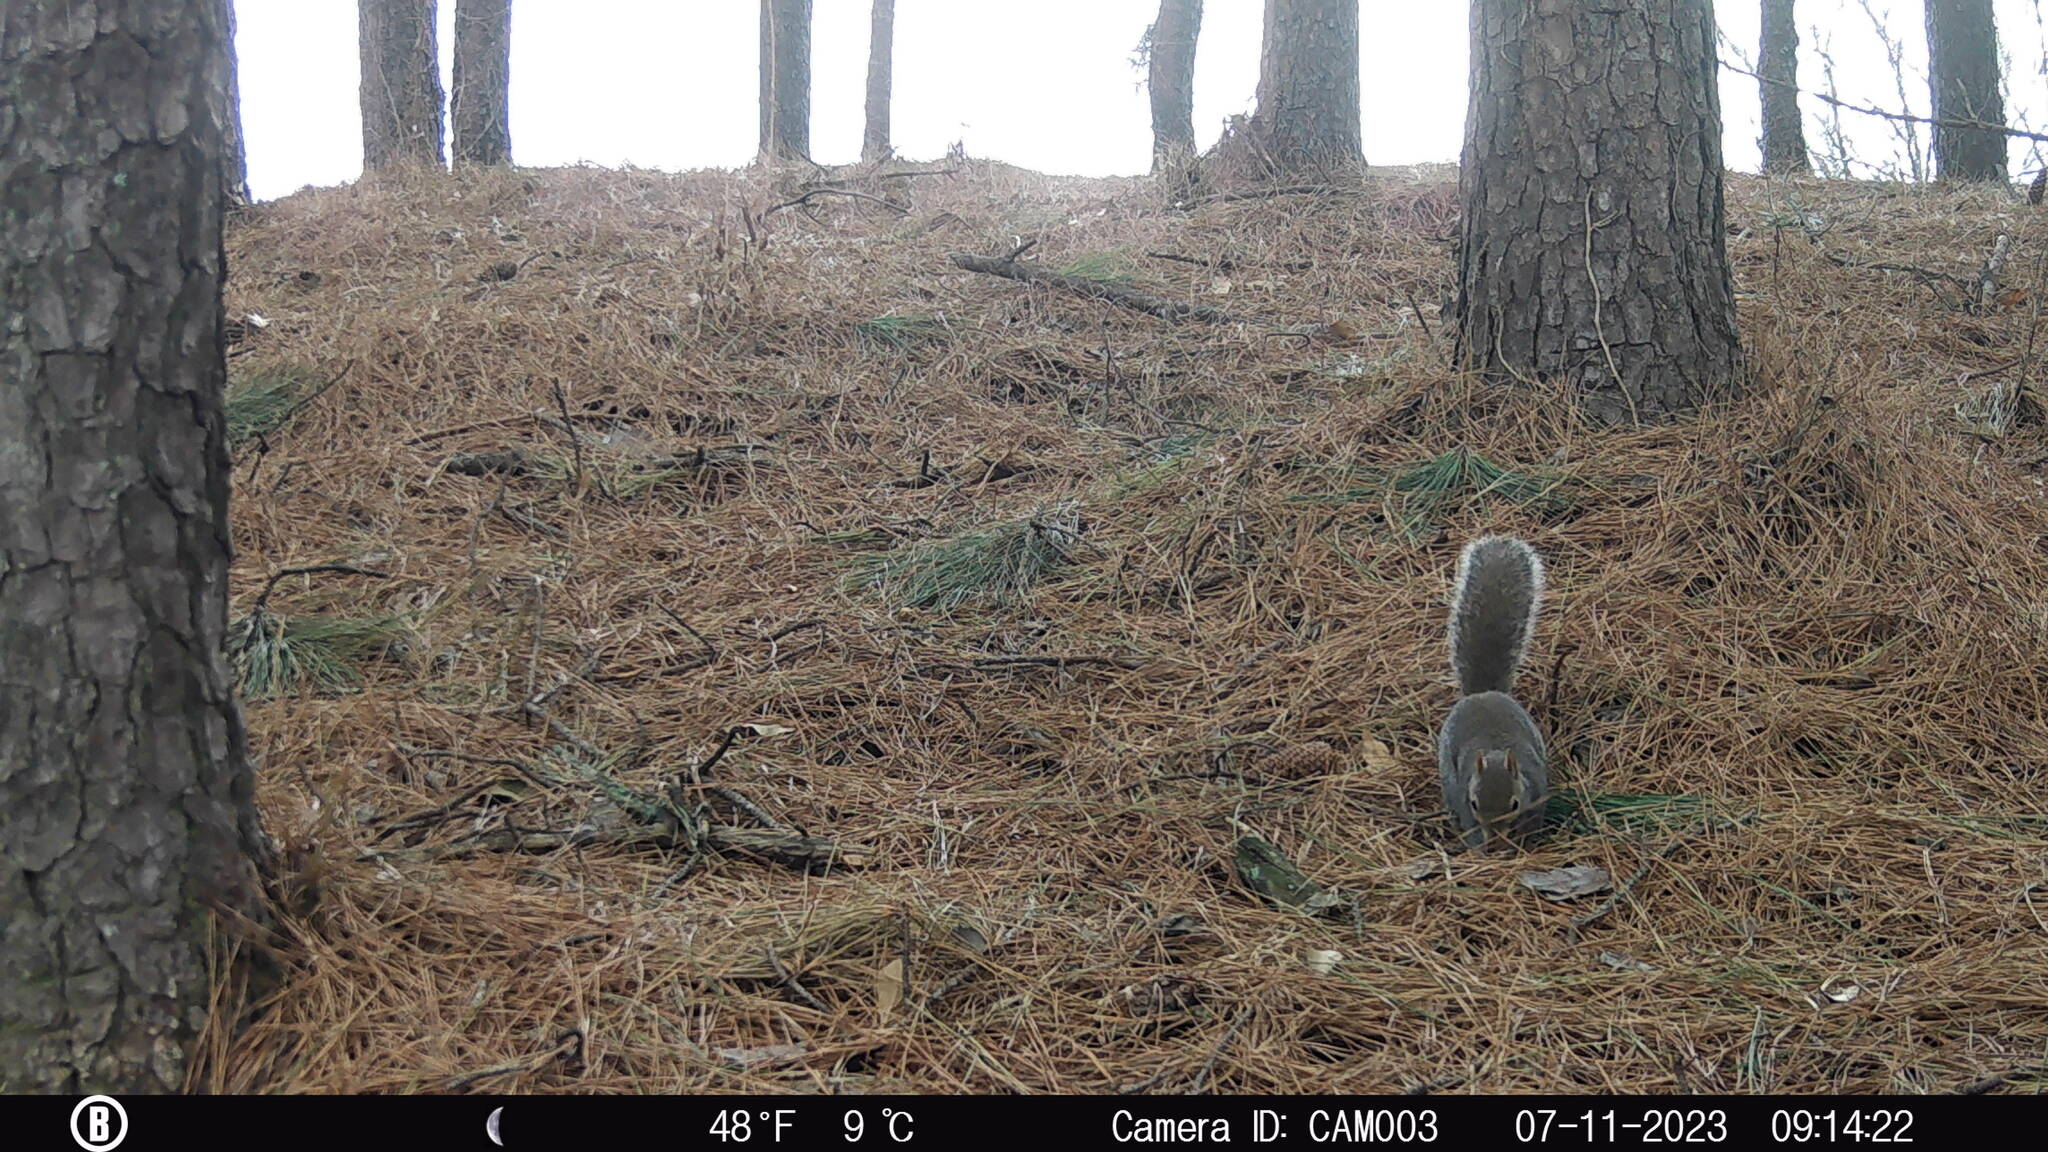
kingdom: Animalia
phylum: Chordata
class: Mammalia
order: Rodentia
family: Sciuridae
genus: Sciurus
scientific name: Sciurus carolinensis
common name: Eastern gray squirrel
